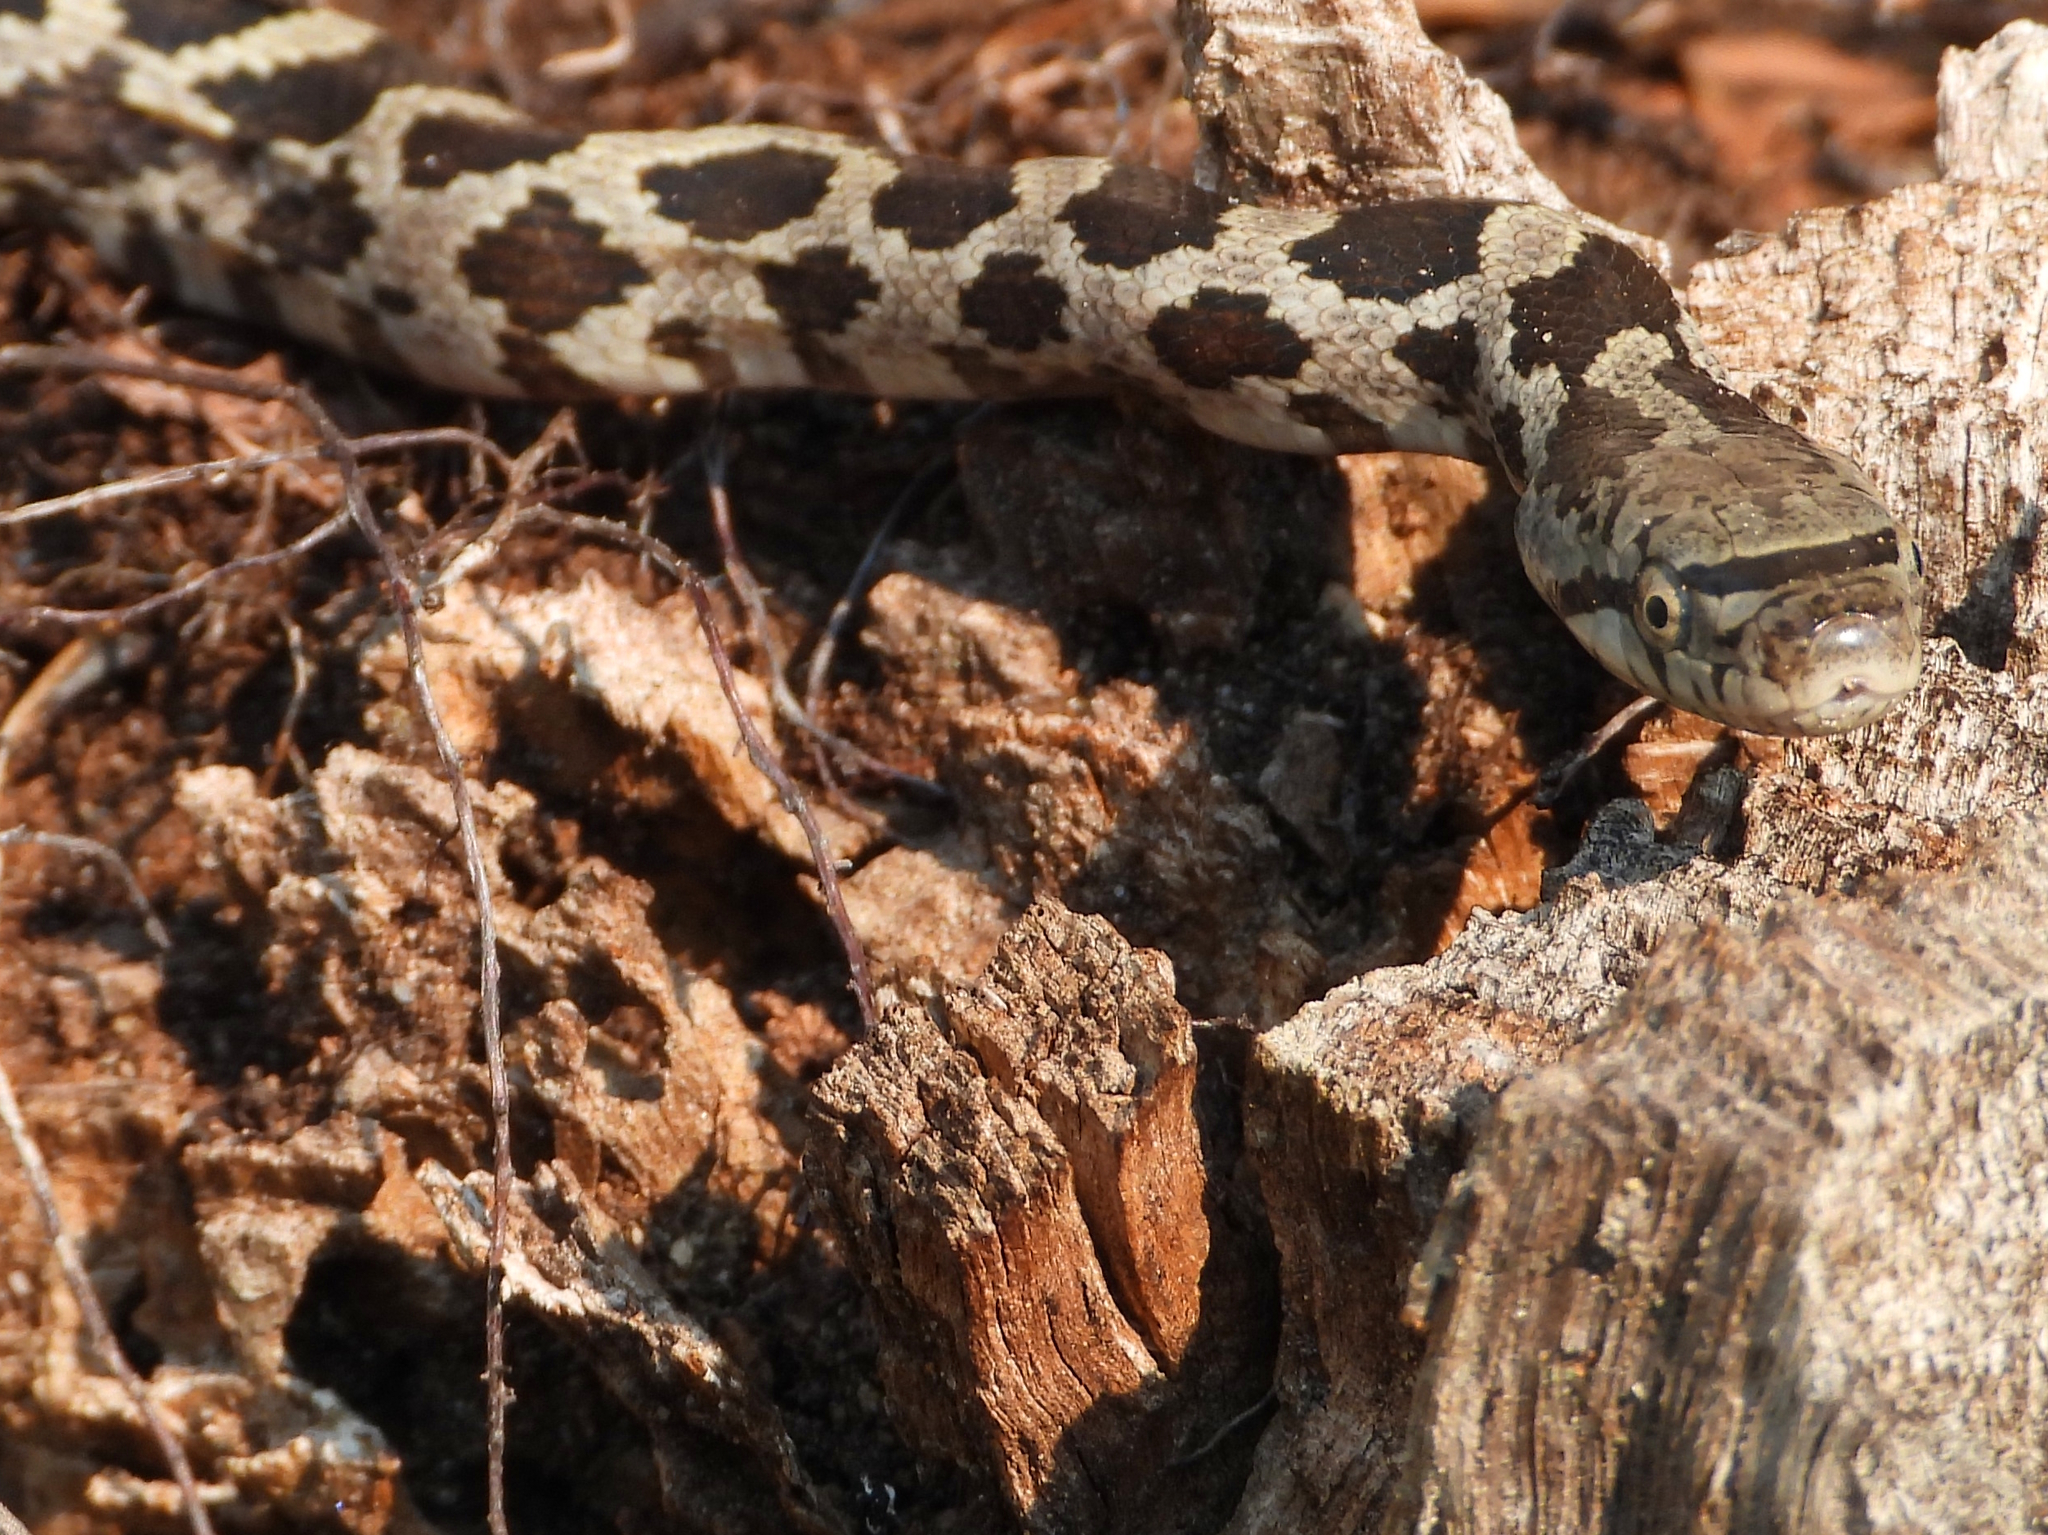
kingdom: Animalia
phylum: Chordata
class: Squamata
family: Colubridae
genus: Pantherophis
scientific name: Pantherophis spiloides
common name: Gray rat snake
